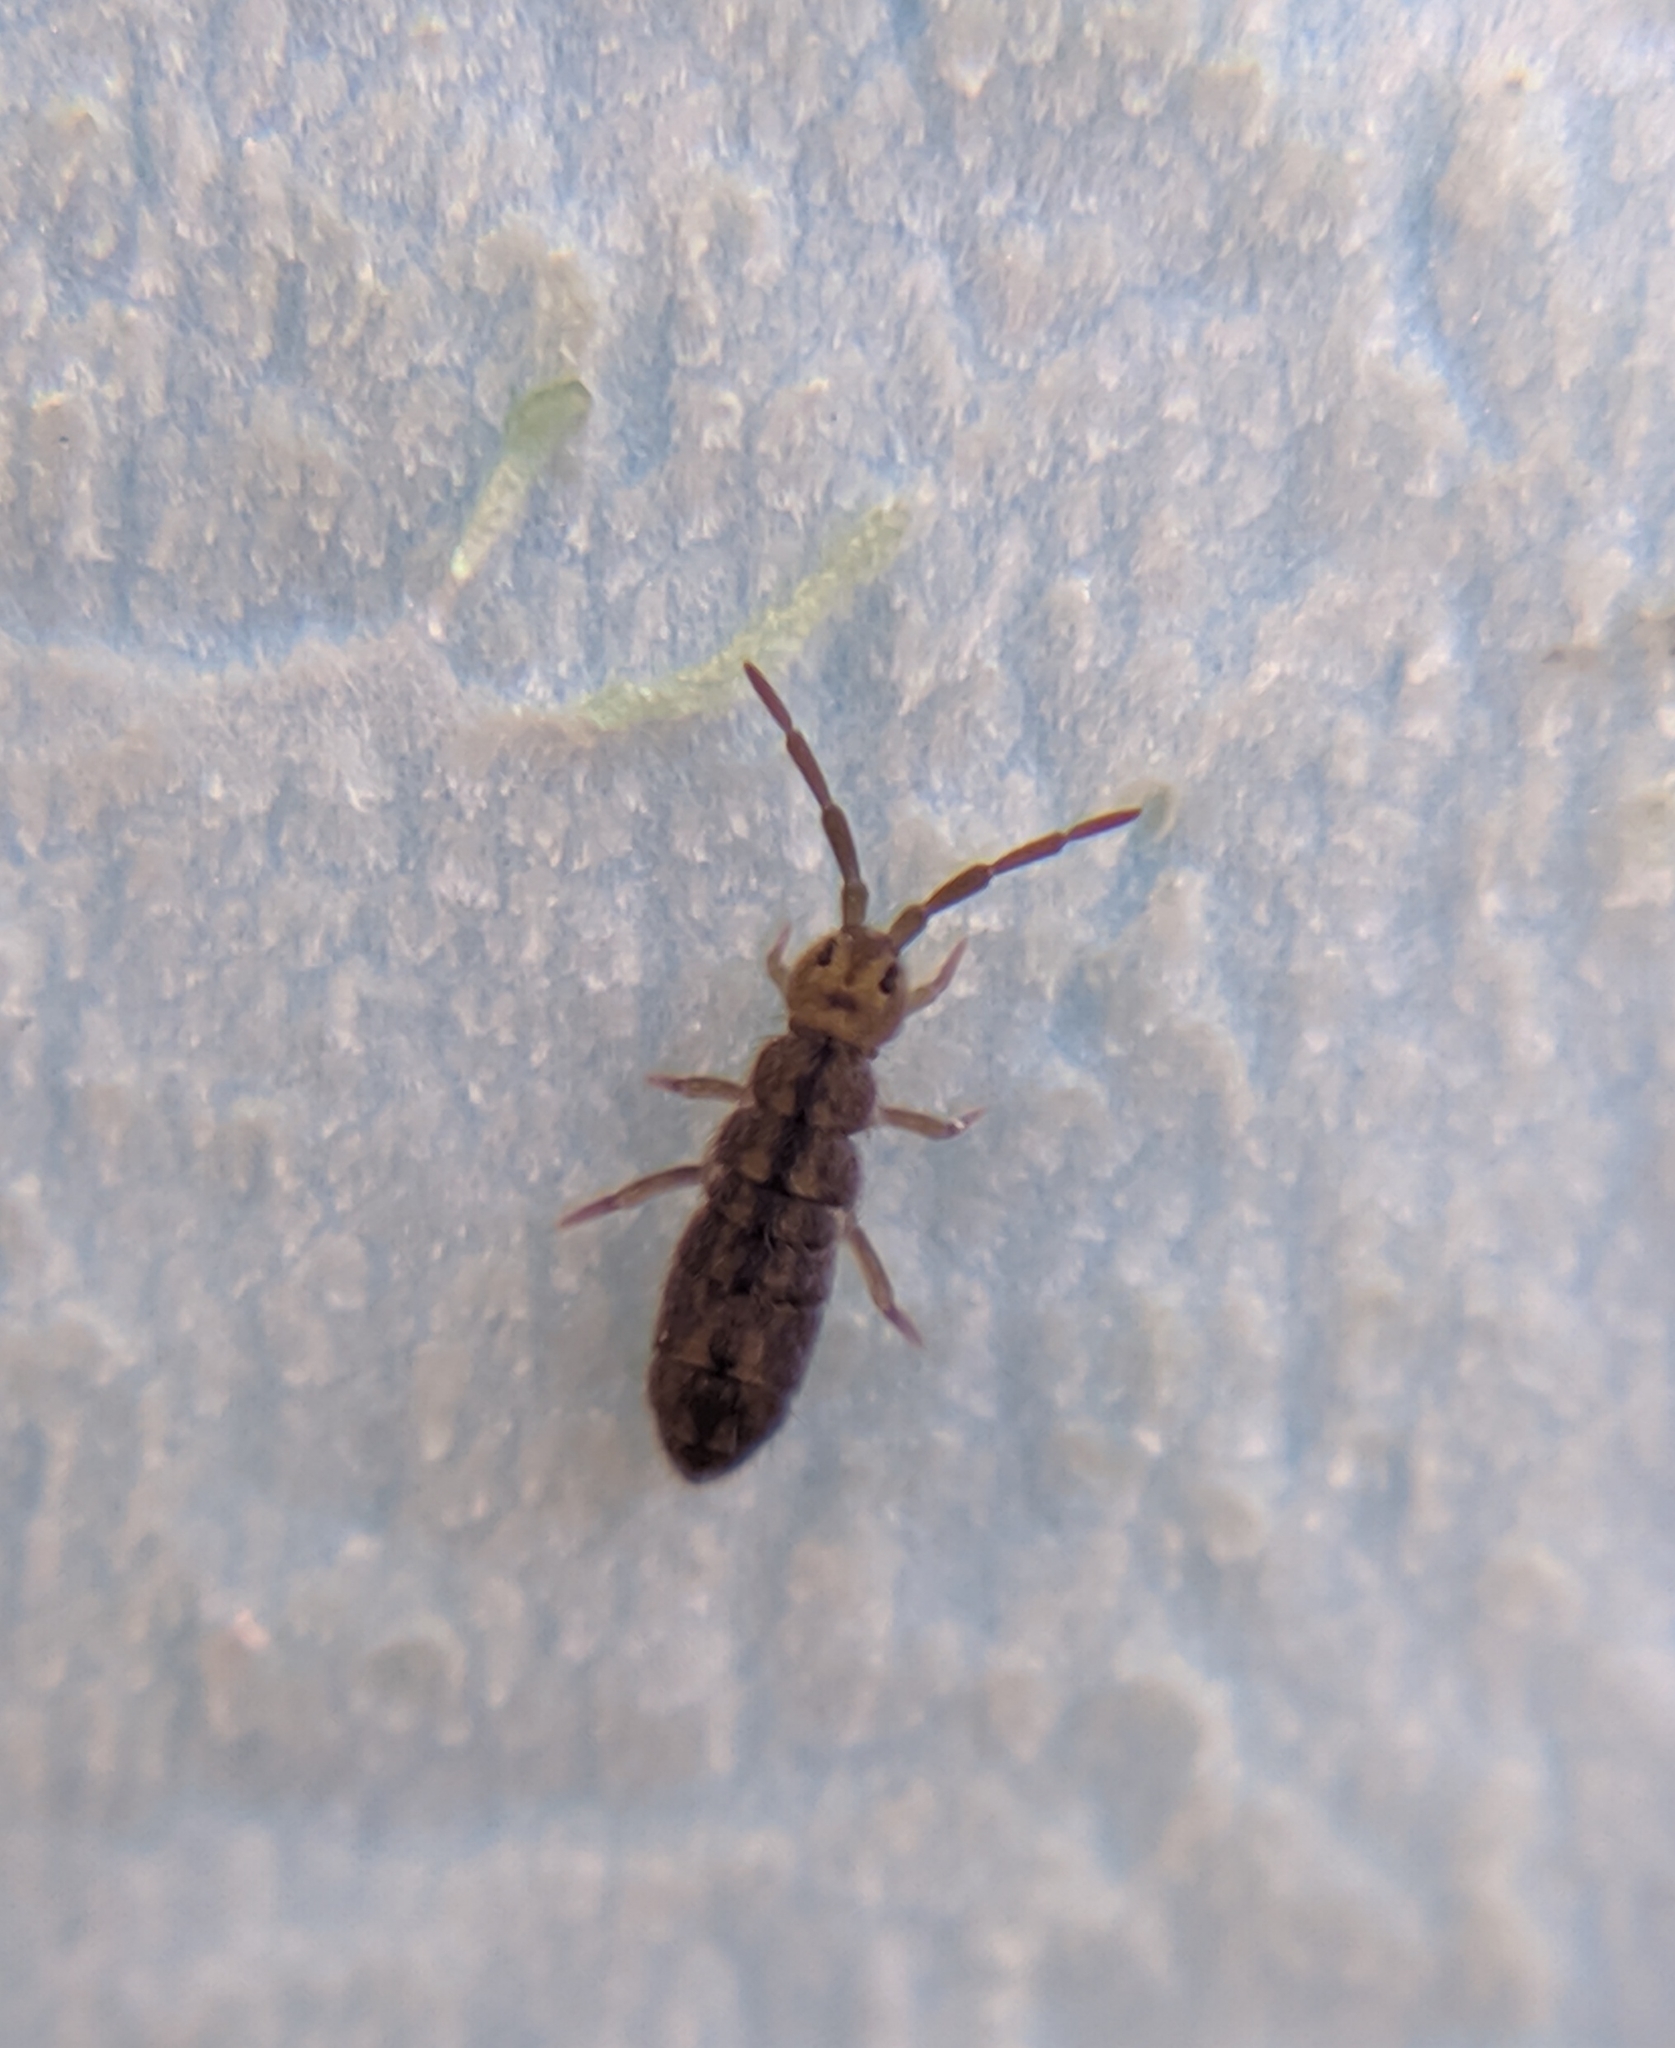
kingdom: Animalia
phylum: Arthropoda
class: Collembola
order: Entomobryomorpha
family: Isotomidae
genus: Isotomurus
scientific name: Isotomurus maculatus
